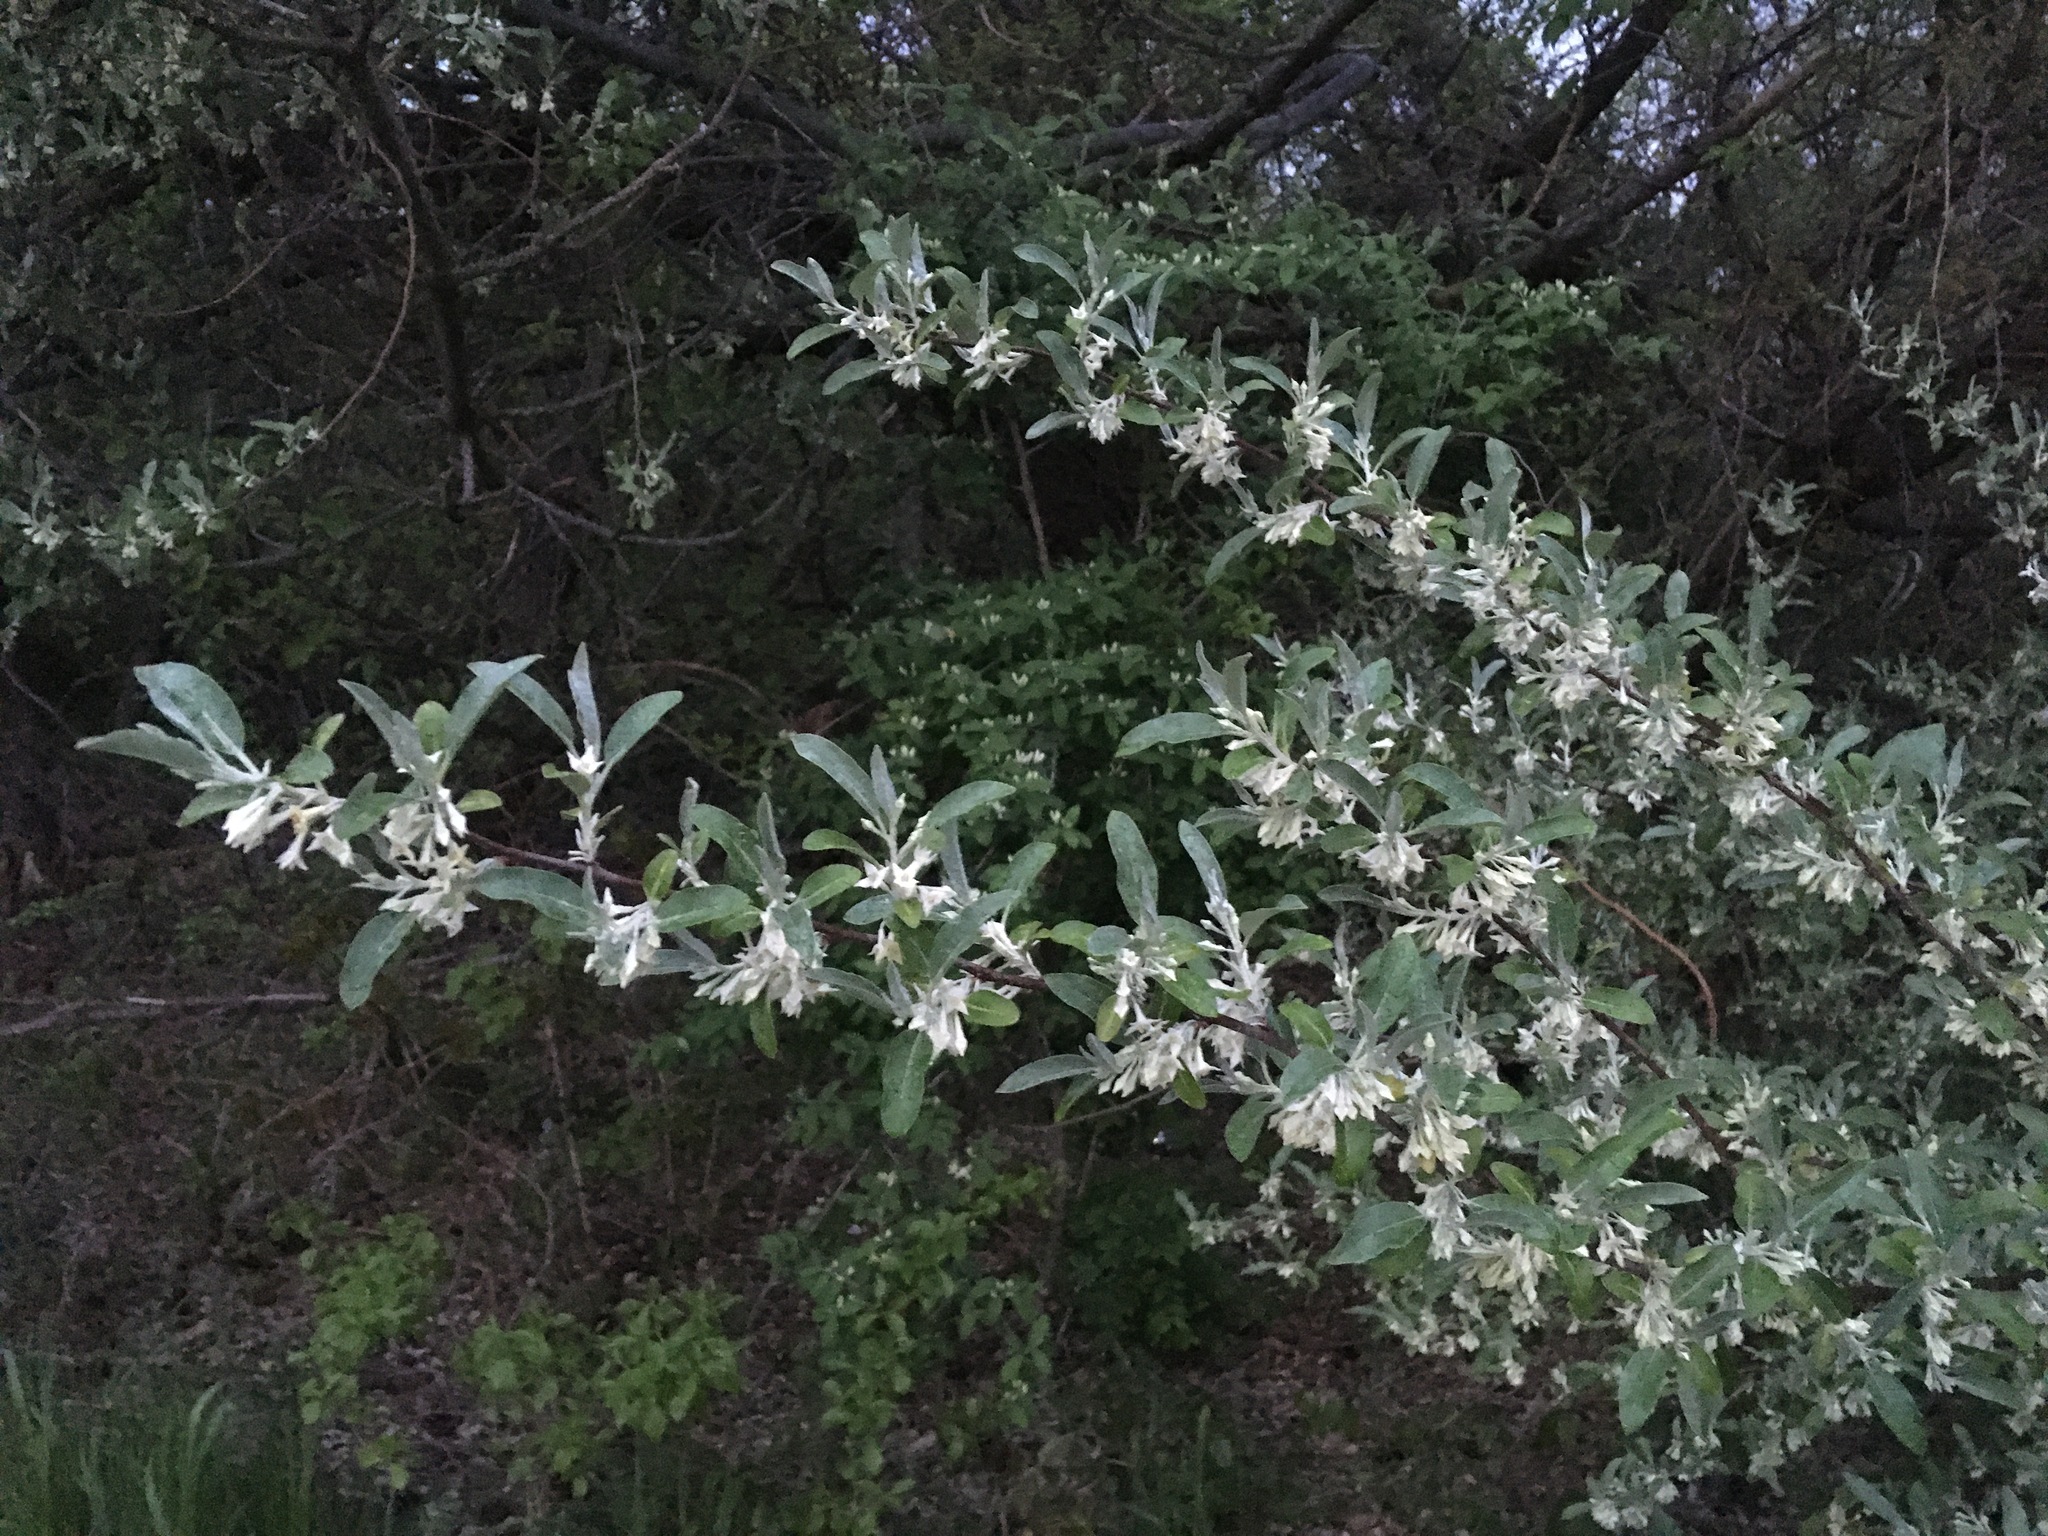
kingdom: Plantae
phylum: Tracheophyta
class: Magnoliopsida
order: Rosales
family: Elaeagnaceae
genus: Elaeagnus
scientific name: Elaeagnus umbellata
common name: Autumn olive
